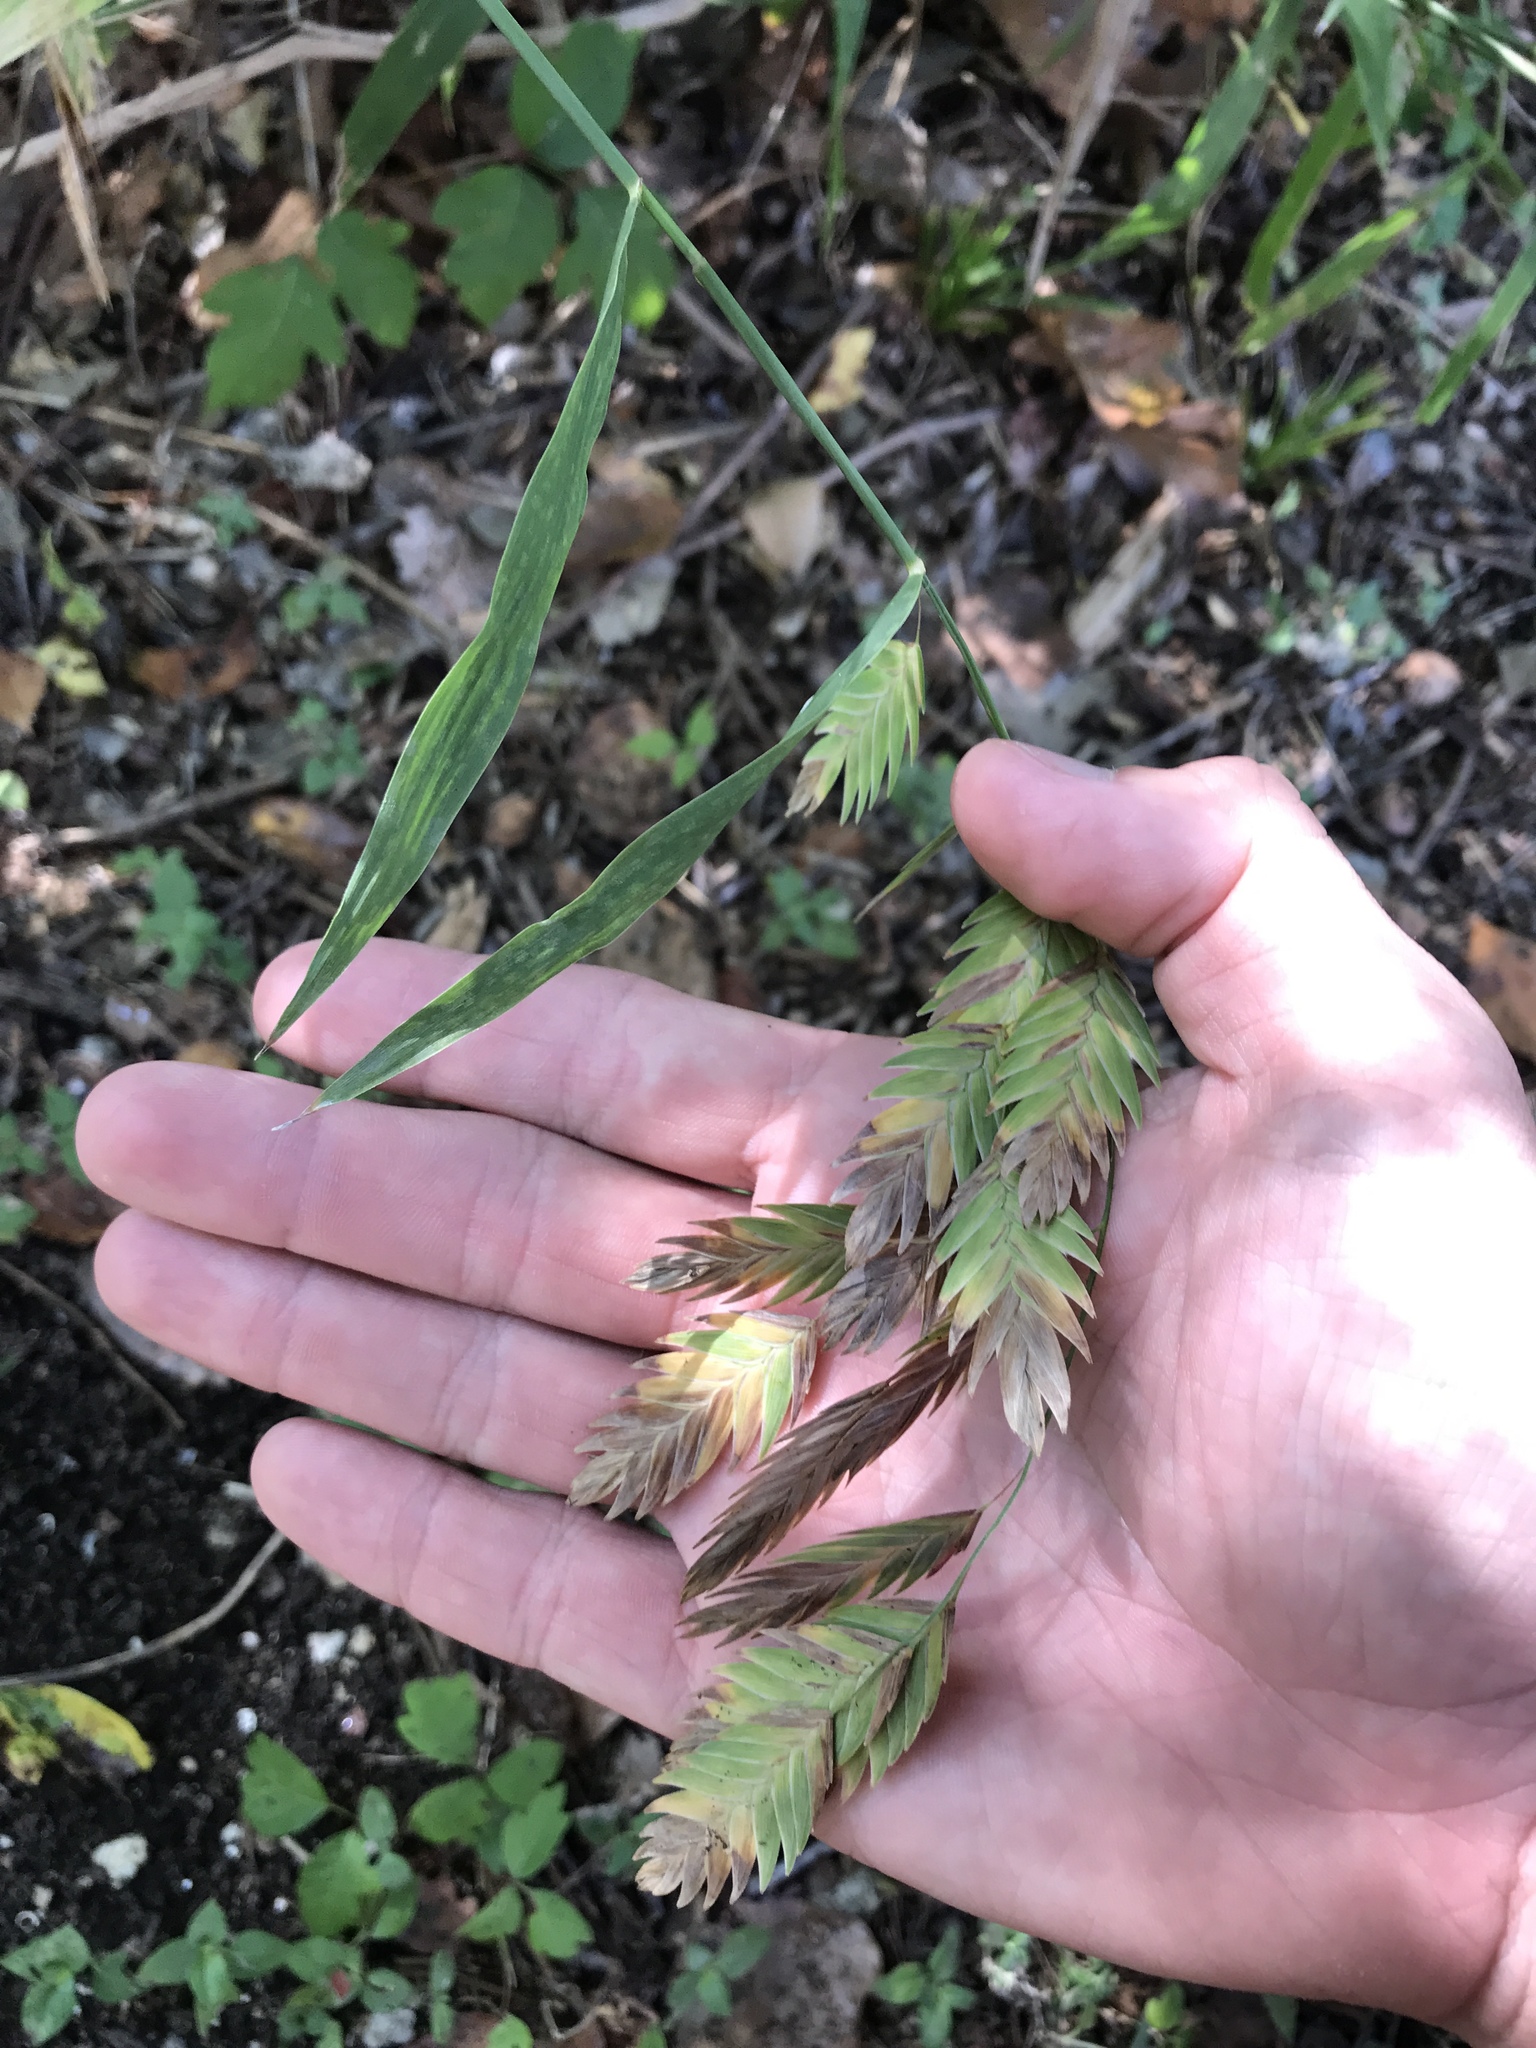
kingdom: Plantae
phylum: Tracheophyta
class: Liliopsida
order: Poales
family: Poaceae
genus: Chasmanthium
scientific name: Chasmanthium latifolium
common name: Broad-leaved chasmanthium
